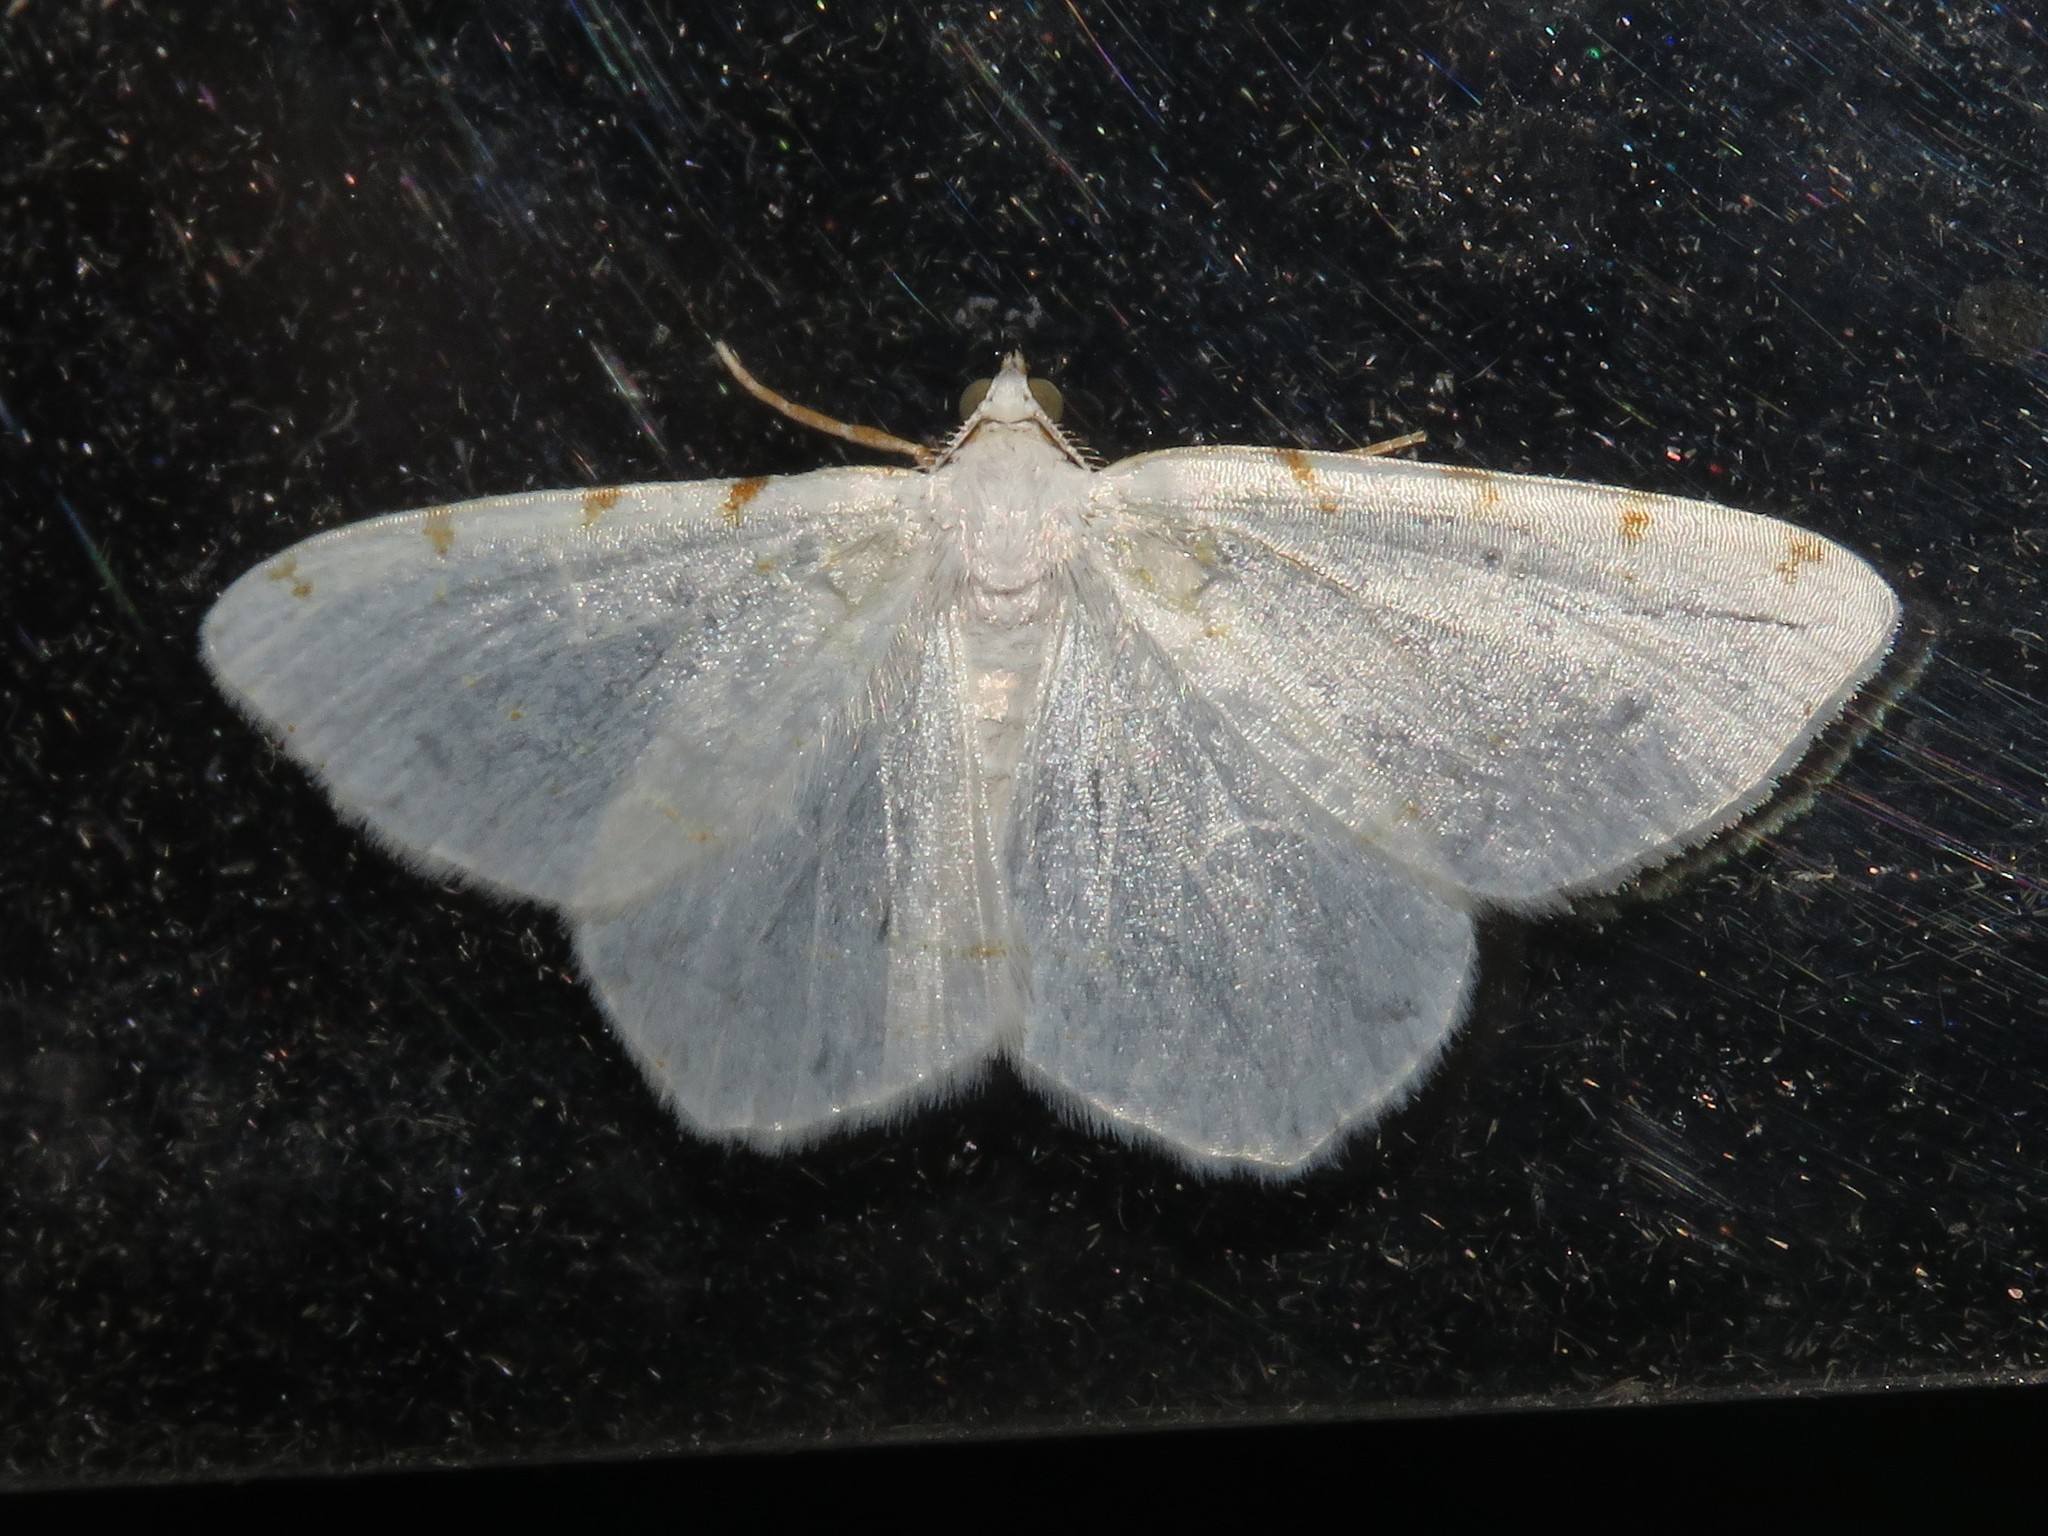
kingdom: Animalia
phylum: Arthropoda
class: Insecta
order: Lepidoptera
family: Geometridae
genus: Macaria
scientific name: Macaria pustularia
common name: Lesser maple spanworm moth
